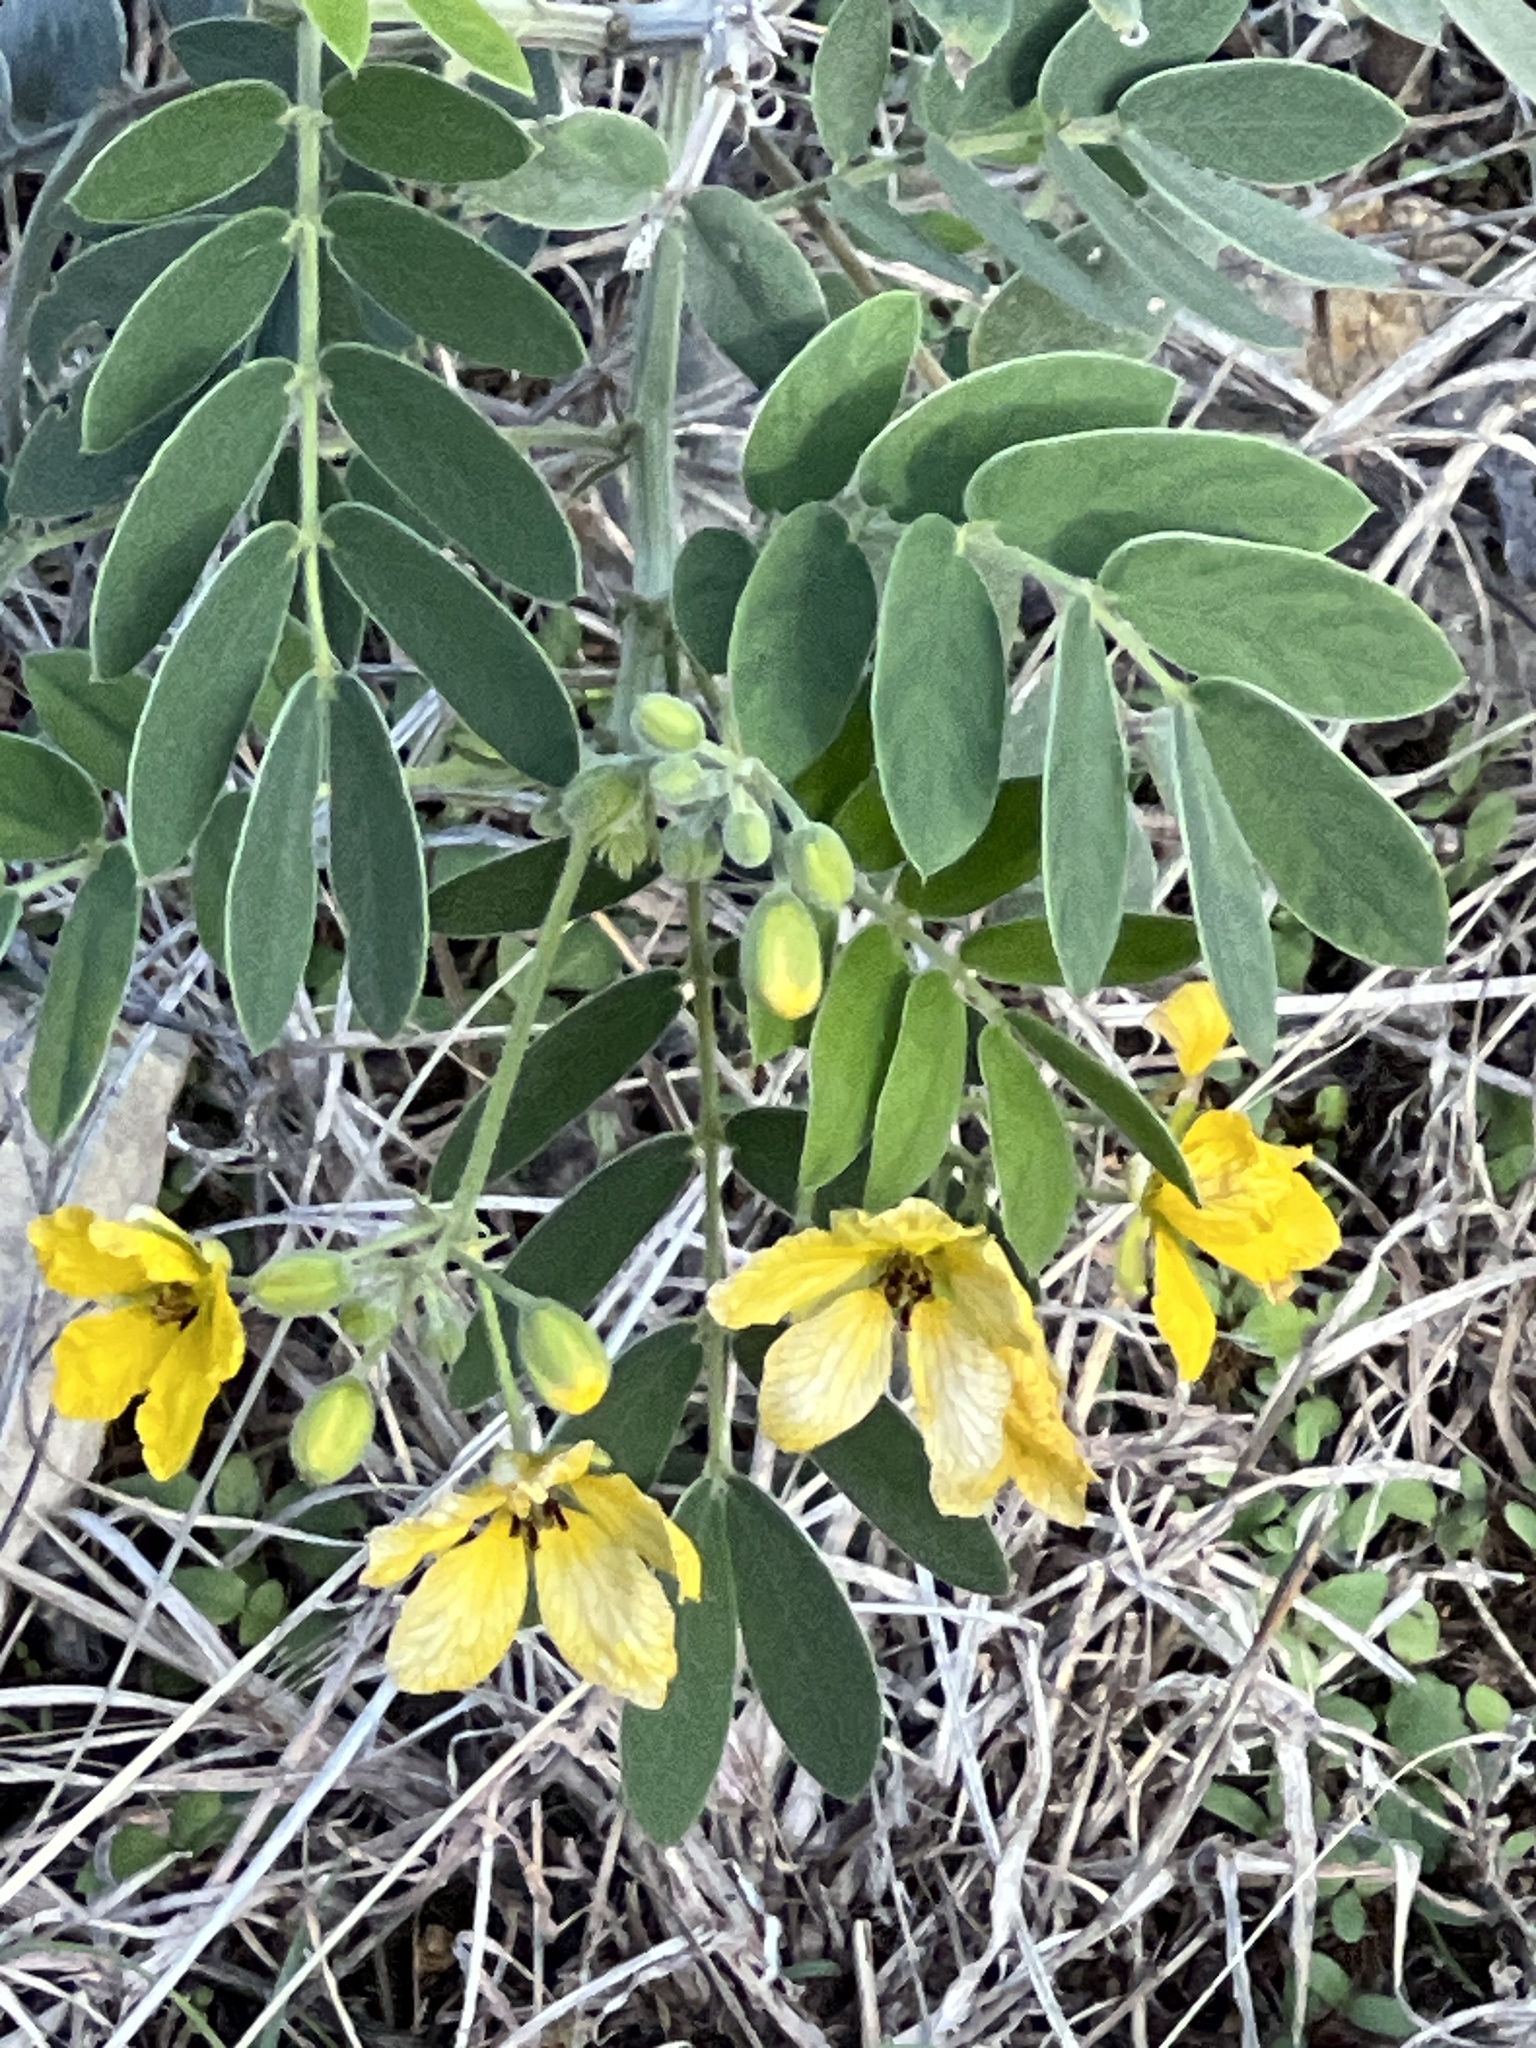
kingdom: Plantae
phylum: Tracheophyta
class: Magnoliopsida
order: Fabales
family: Fabaceae
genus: Senna
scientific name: Senna lindheimeriana
